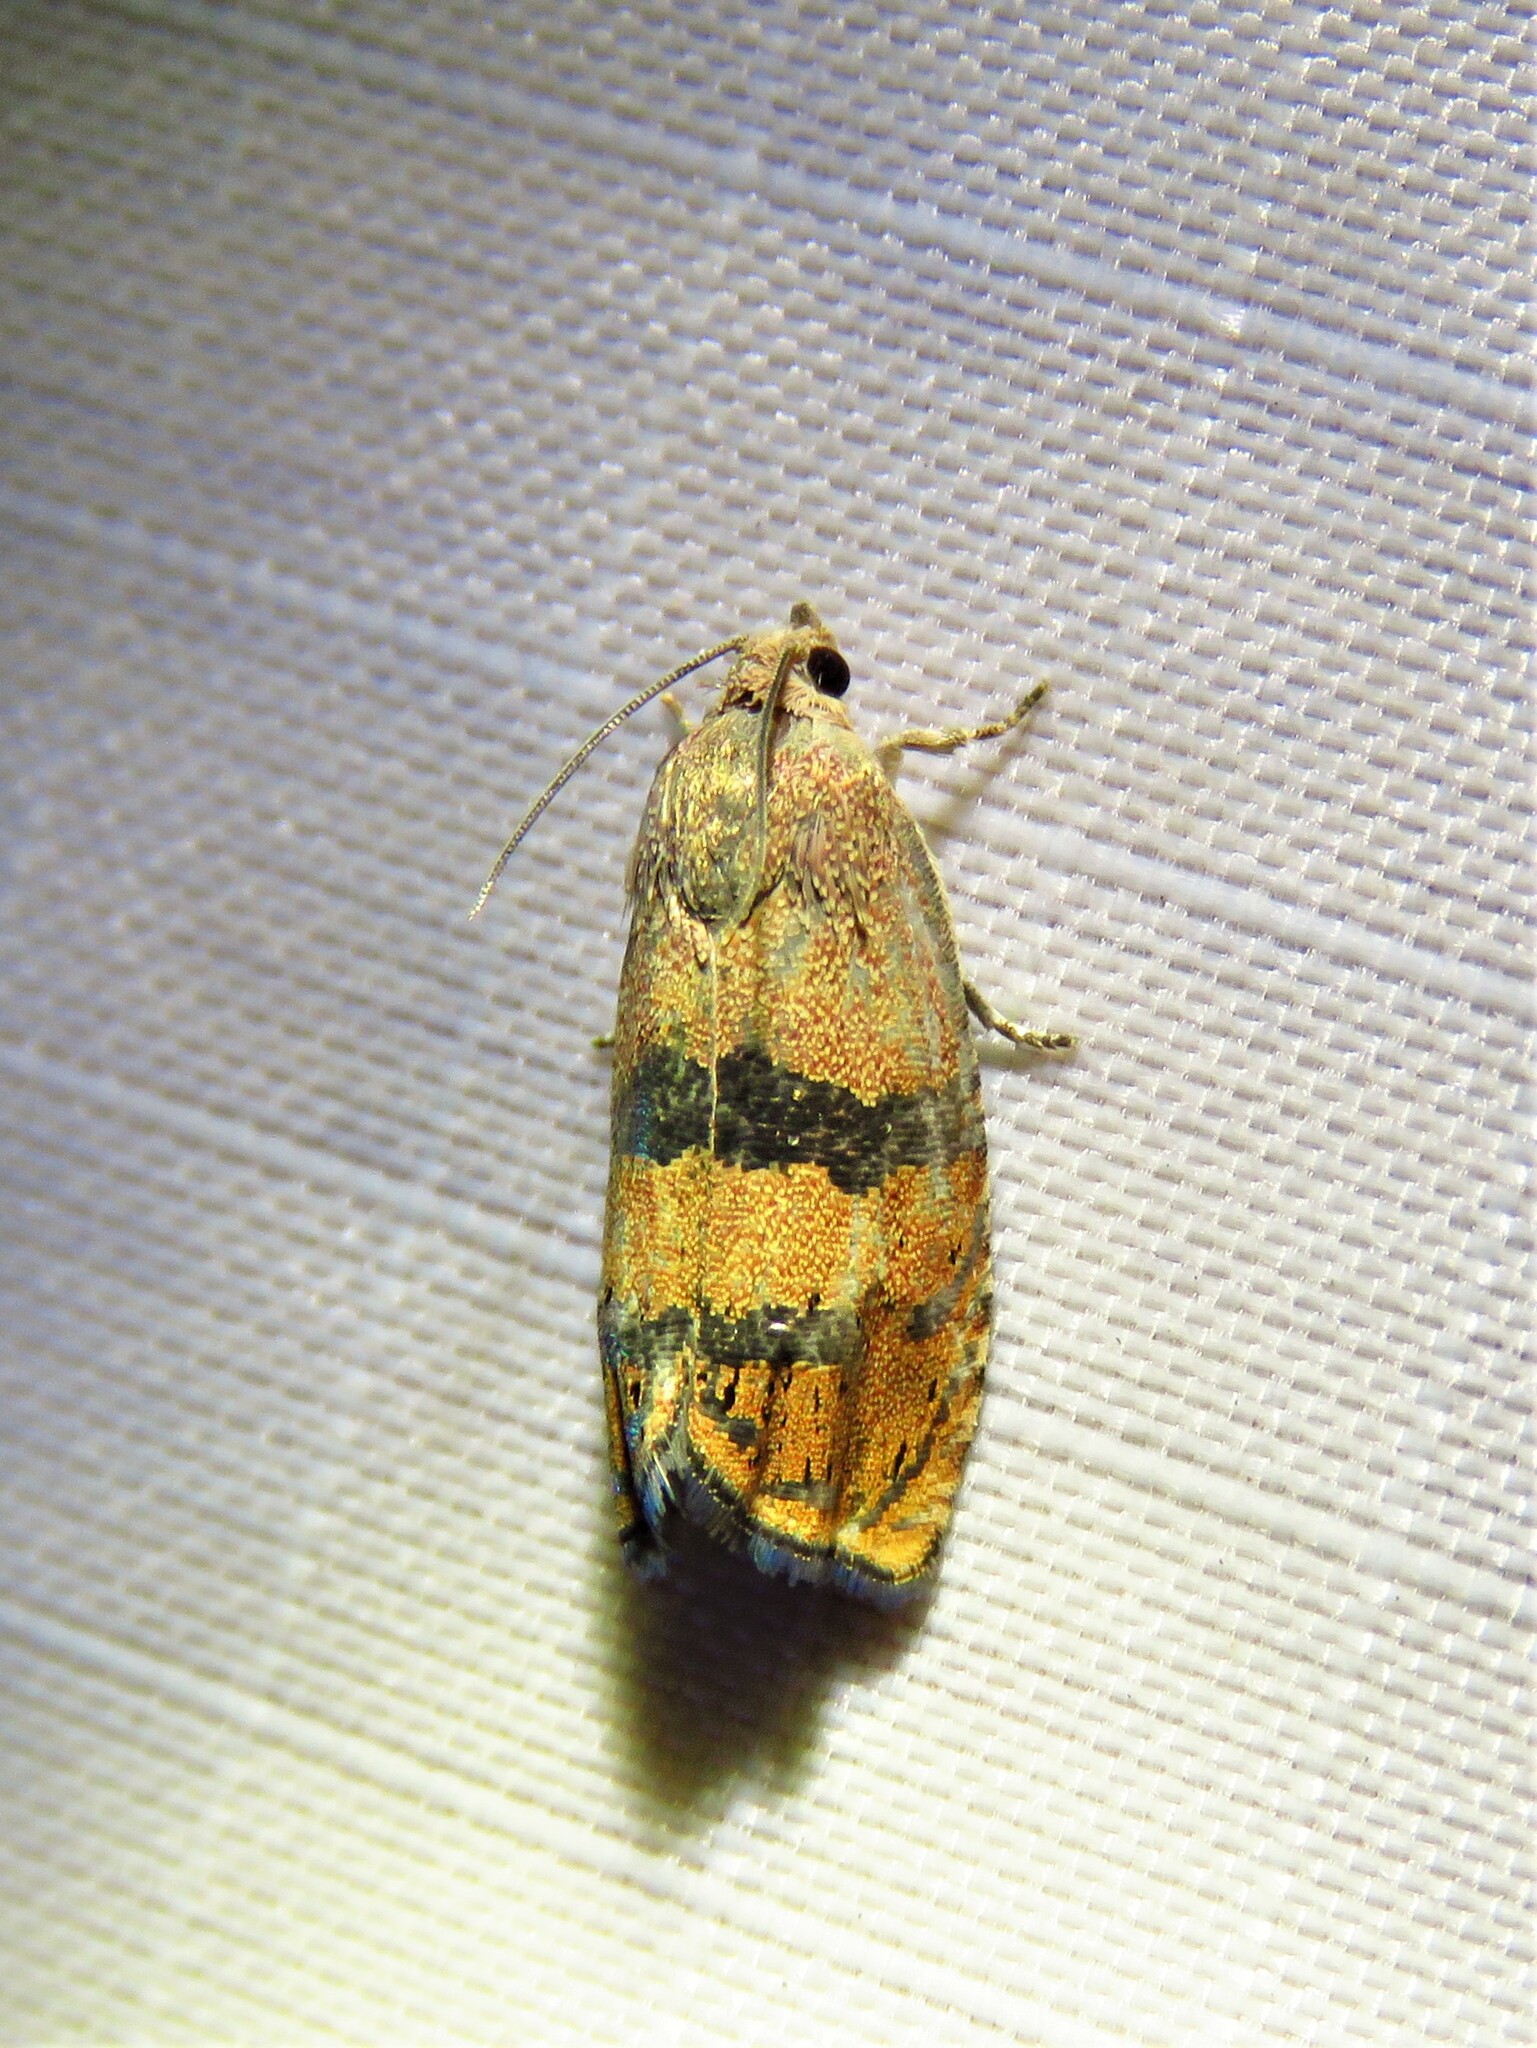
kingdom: Animalia
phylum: Arthropoda
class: Insecta
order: Lepidoptera
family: Tortricidae
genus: Cydia
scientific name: Cydia latiferreana
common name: Filbertworm moth
